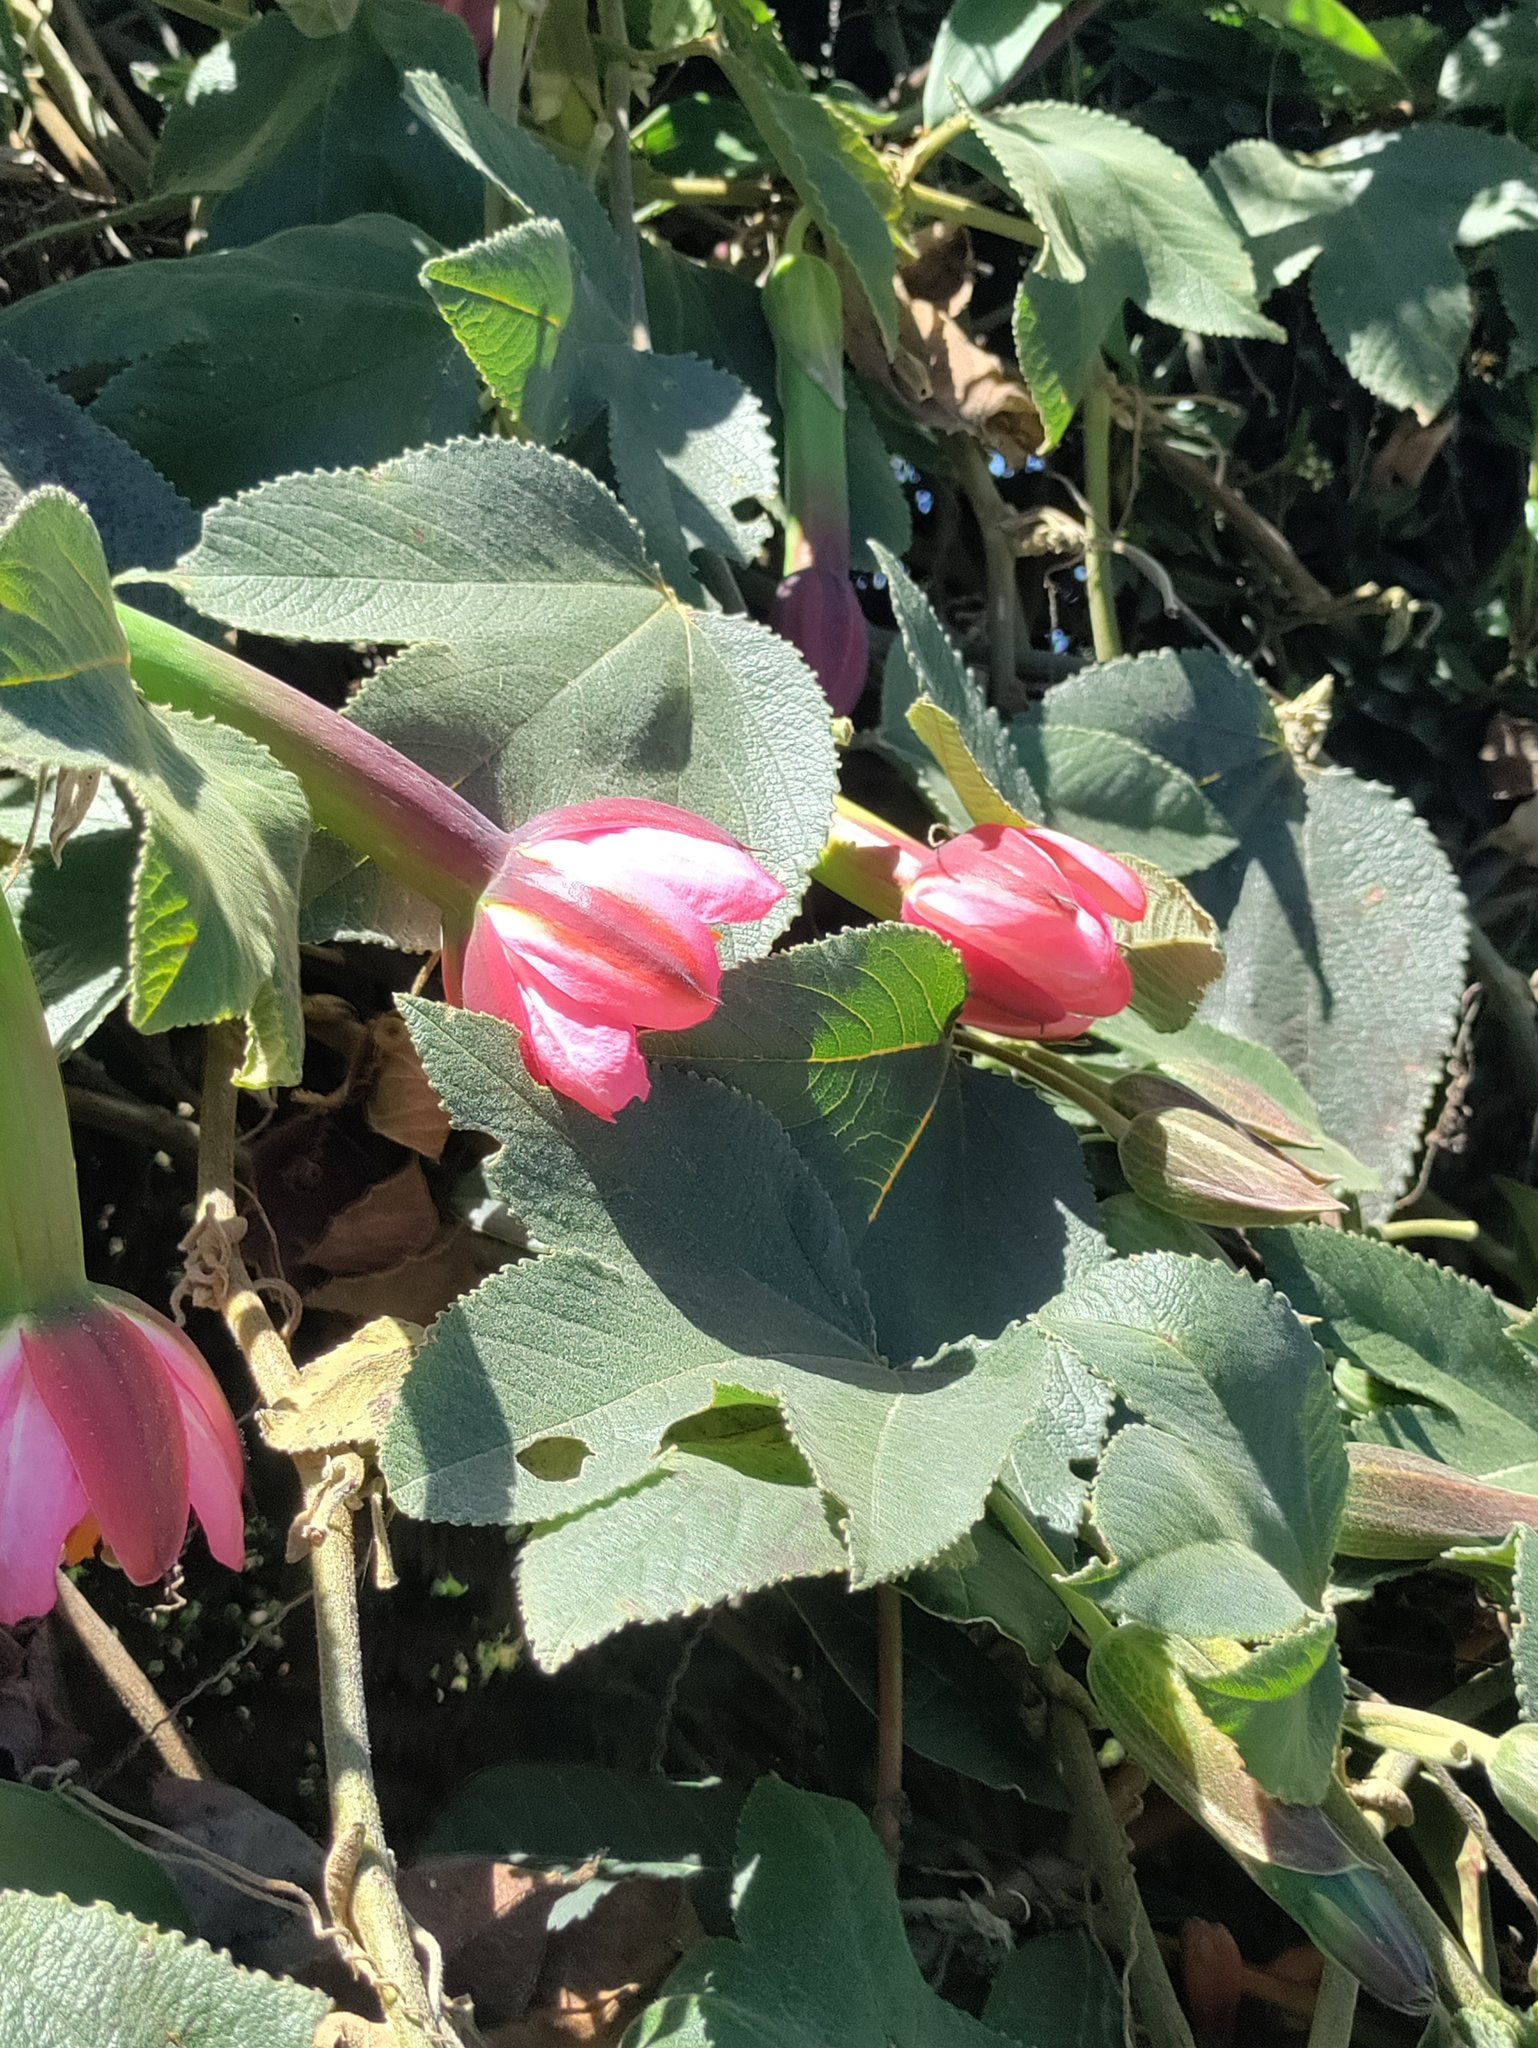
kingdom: Plantae
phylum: Tracheophyta
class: Magnoliopsida
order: Malpighiales
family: Passifloraceae
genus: Passiflora
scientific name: Passiflora tripartita
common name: Banana poka
